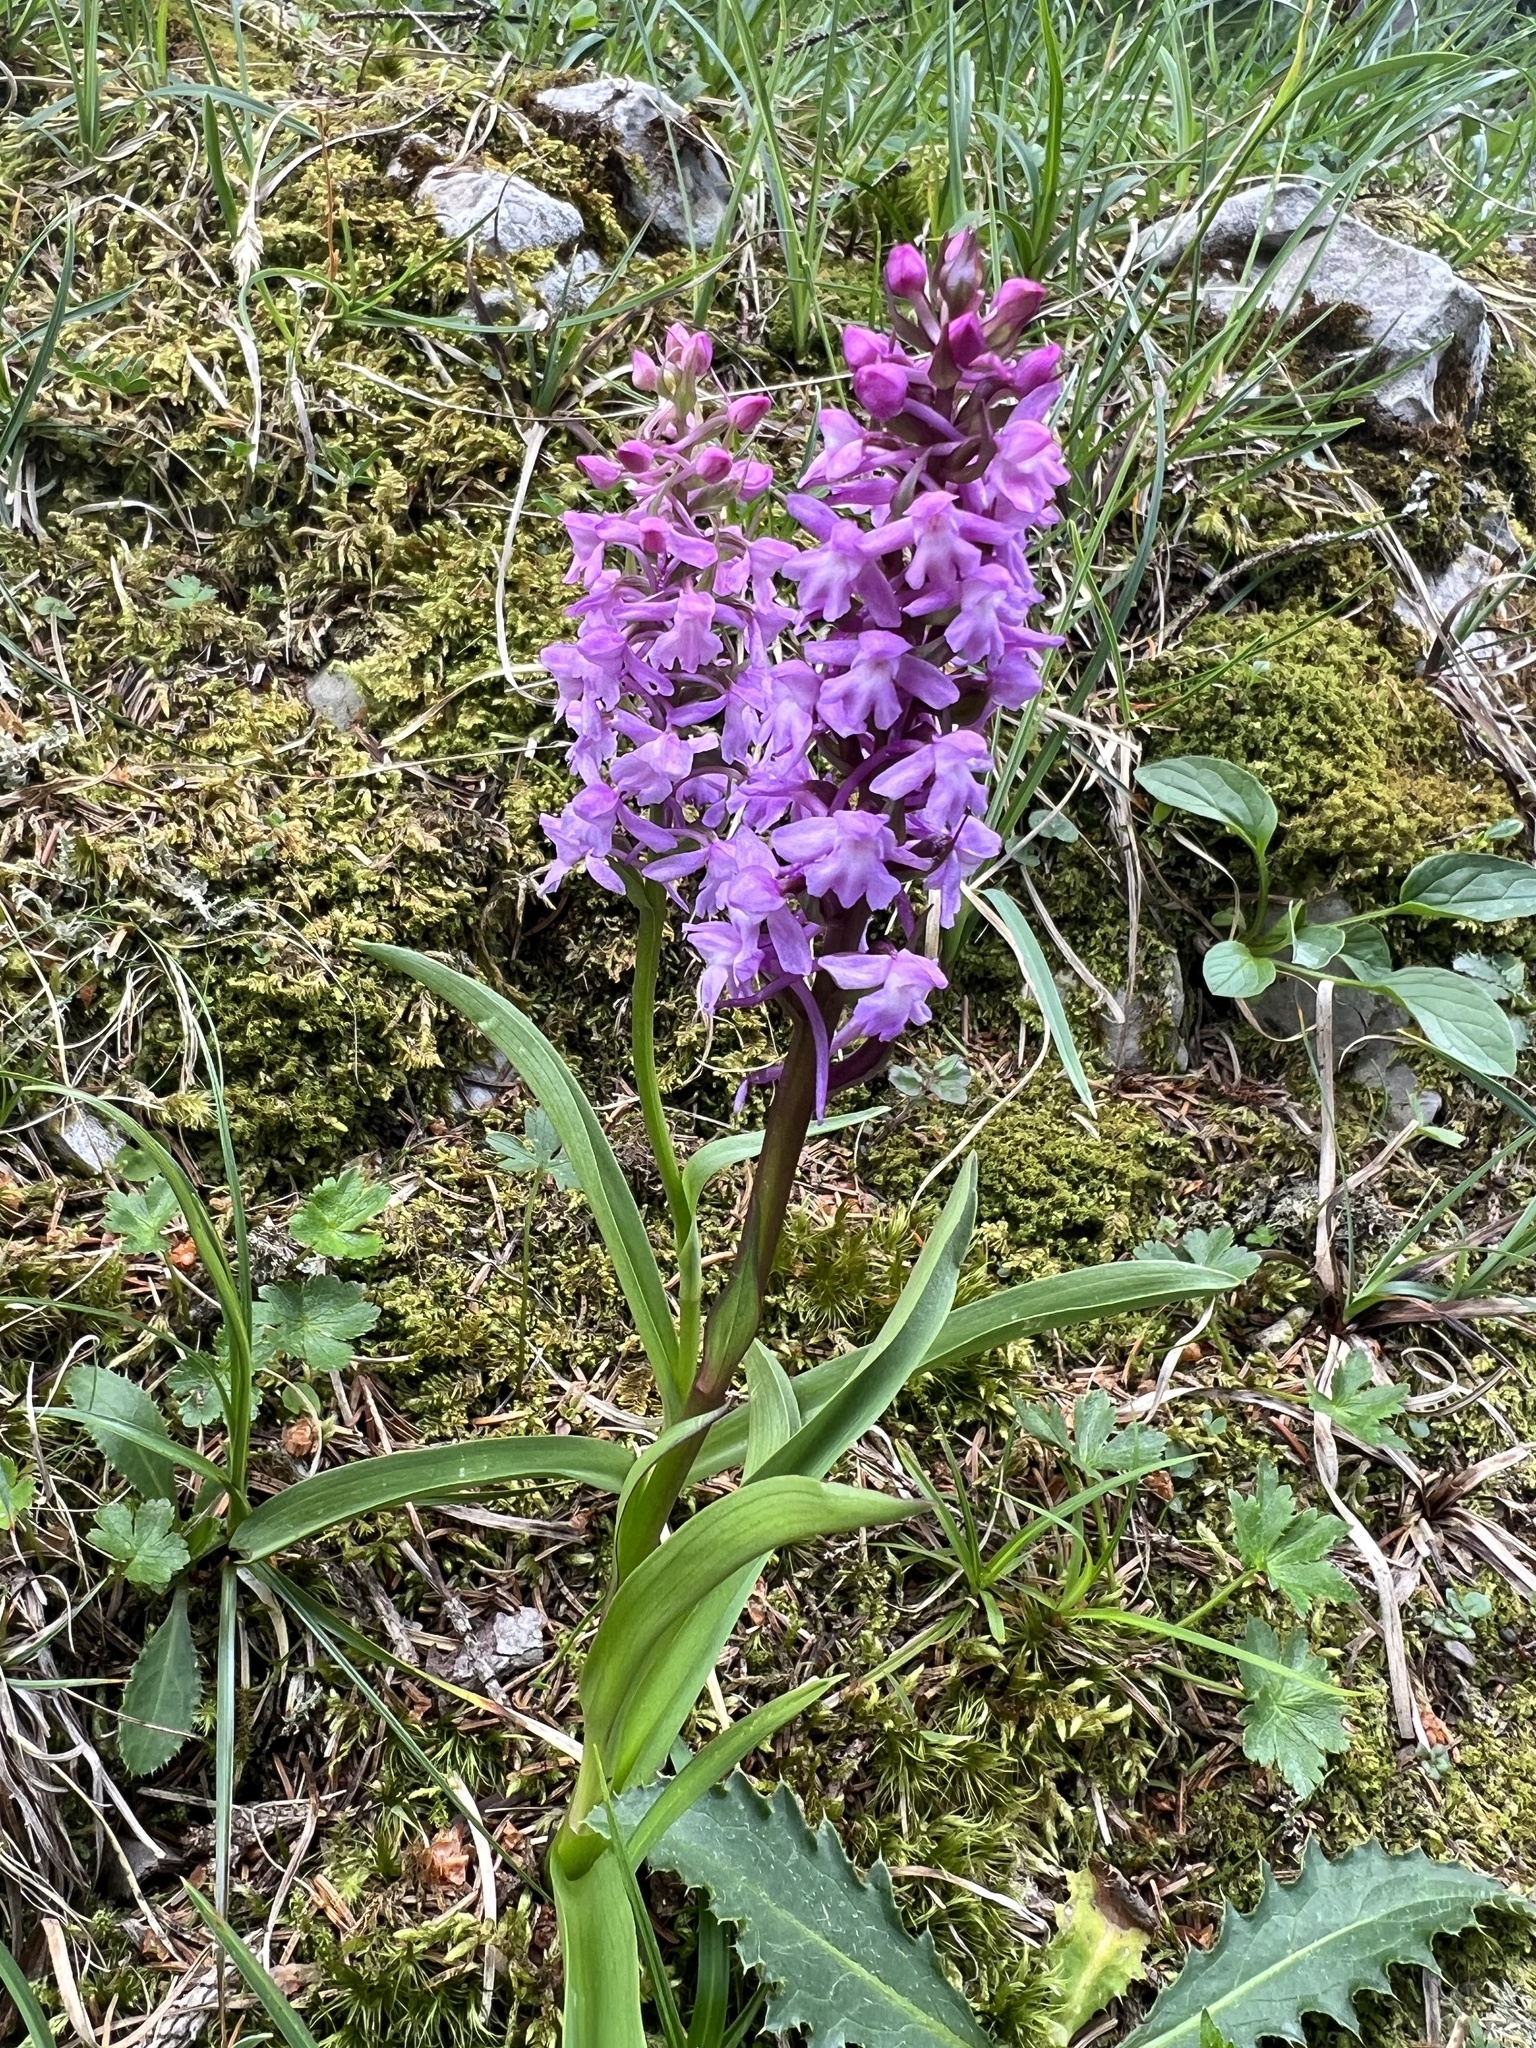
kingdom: Plantae
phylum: Tracheophyta
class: Liliopsida
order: Asparagales
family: Orchidaceae
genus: Gymnadenia
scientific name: Gymnadenia conopsea
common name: Fragrant orchid
